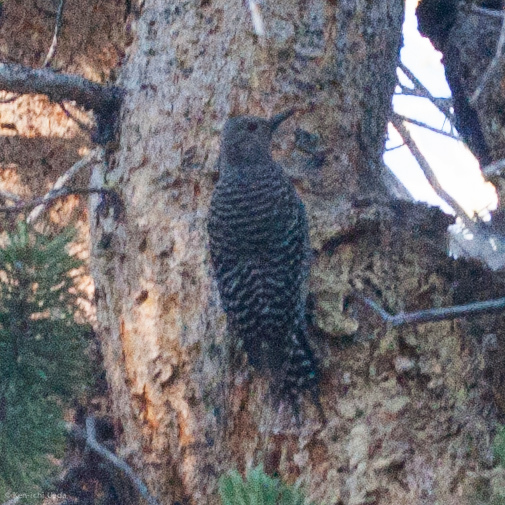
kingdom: Animalia
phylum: Chordata
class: Aves
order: Piciformes
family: Picidae
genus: Sphyrapicus
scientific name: Sphyrapicus thyroideus
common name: Williamson's sapsucker
